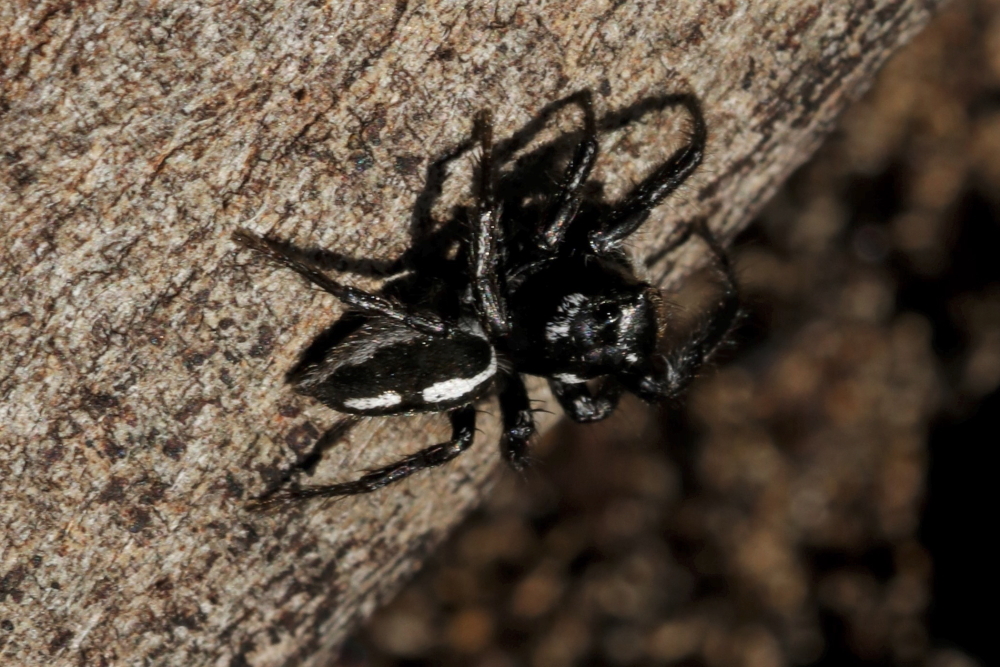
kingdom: Animalia
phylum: Arthropoda
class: Arachnida
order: Araneae
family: Salticidae
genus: Hyllus
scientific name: Hyllus argyrotoxus
